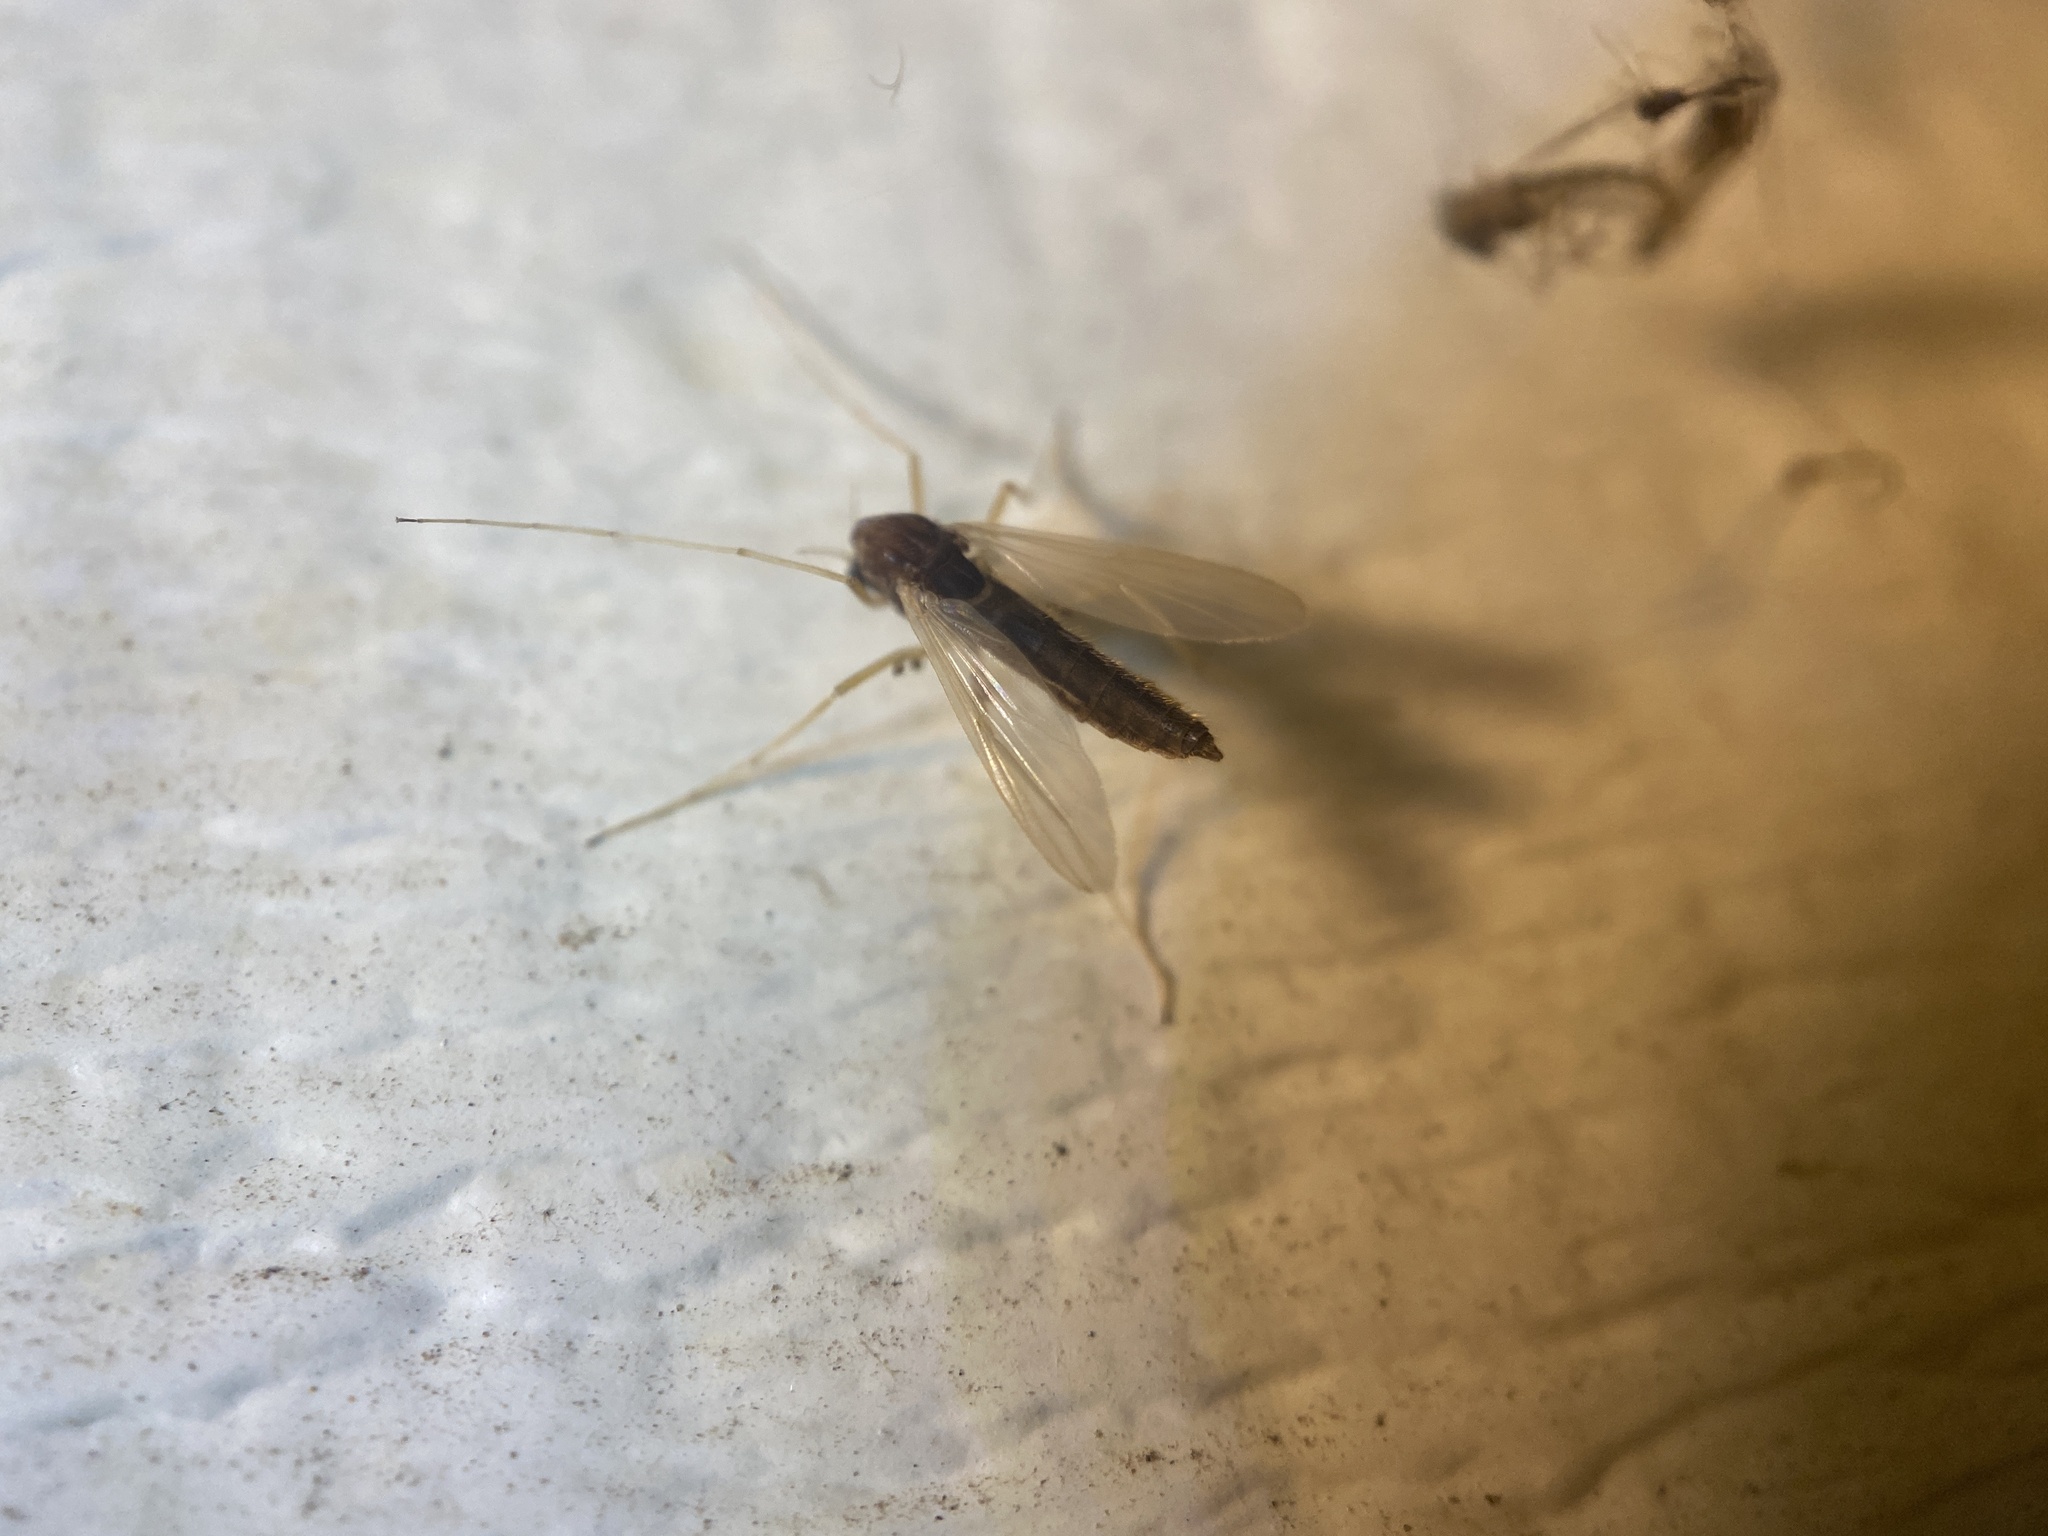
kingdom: Animalia
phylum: Arthropoda
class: Insecta
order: Diptera
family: Chironomidae
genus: Hyporhygma
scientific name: Hyporhygma quadripunctatus
